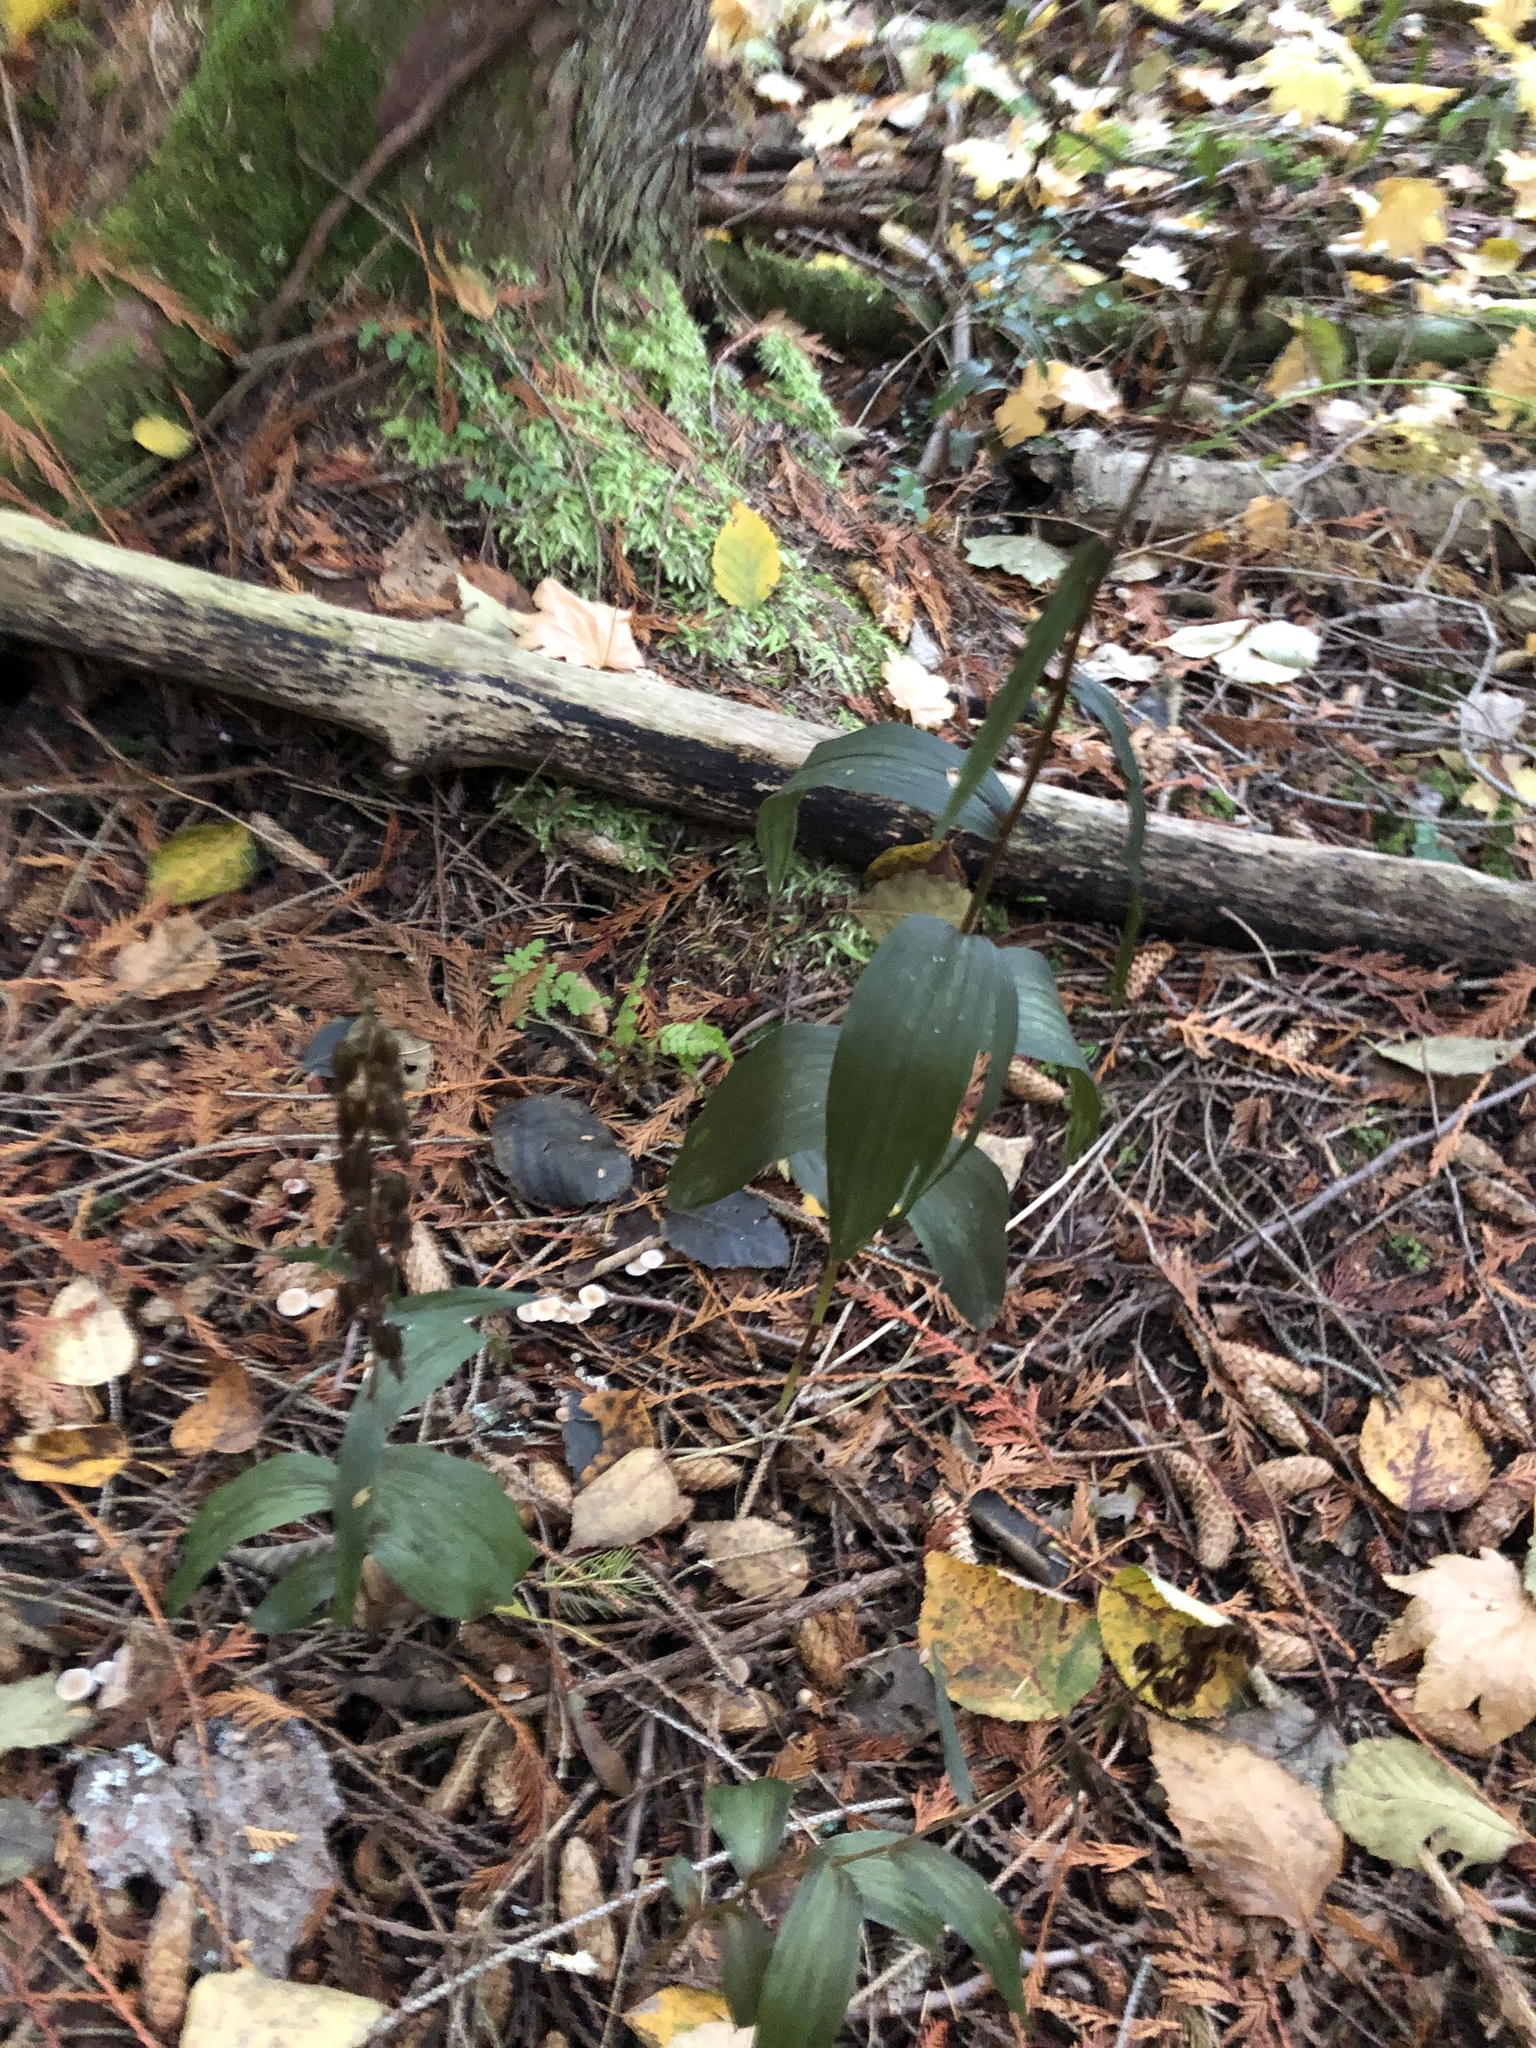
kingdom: Plantae
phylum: Tracheophyta
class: Liliopsida
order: Asparagales
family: Orchidaceae
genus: Epipactis
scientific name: Epipactis helleborine
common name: Broad-leaved helleborine
